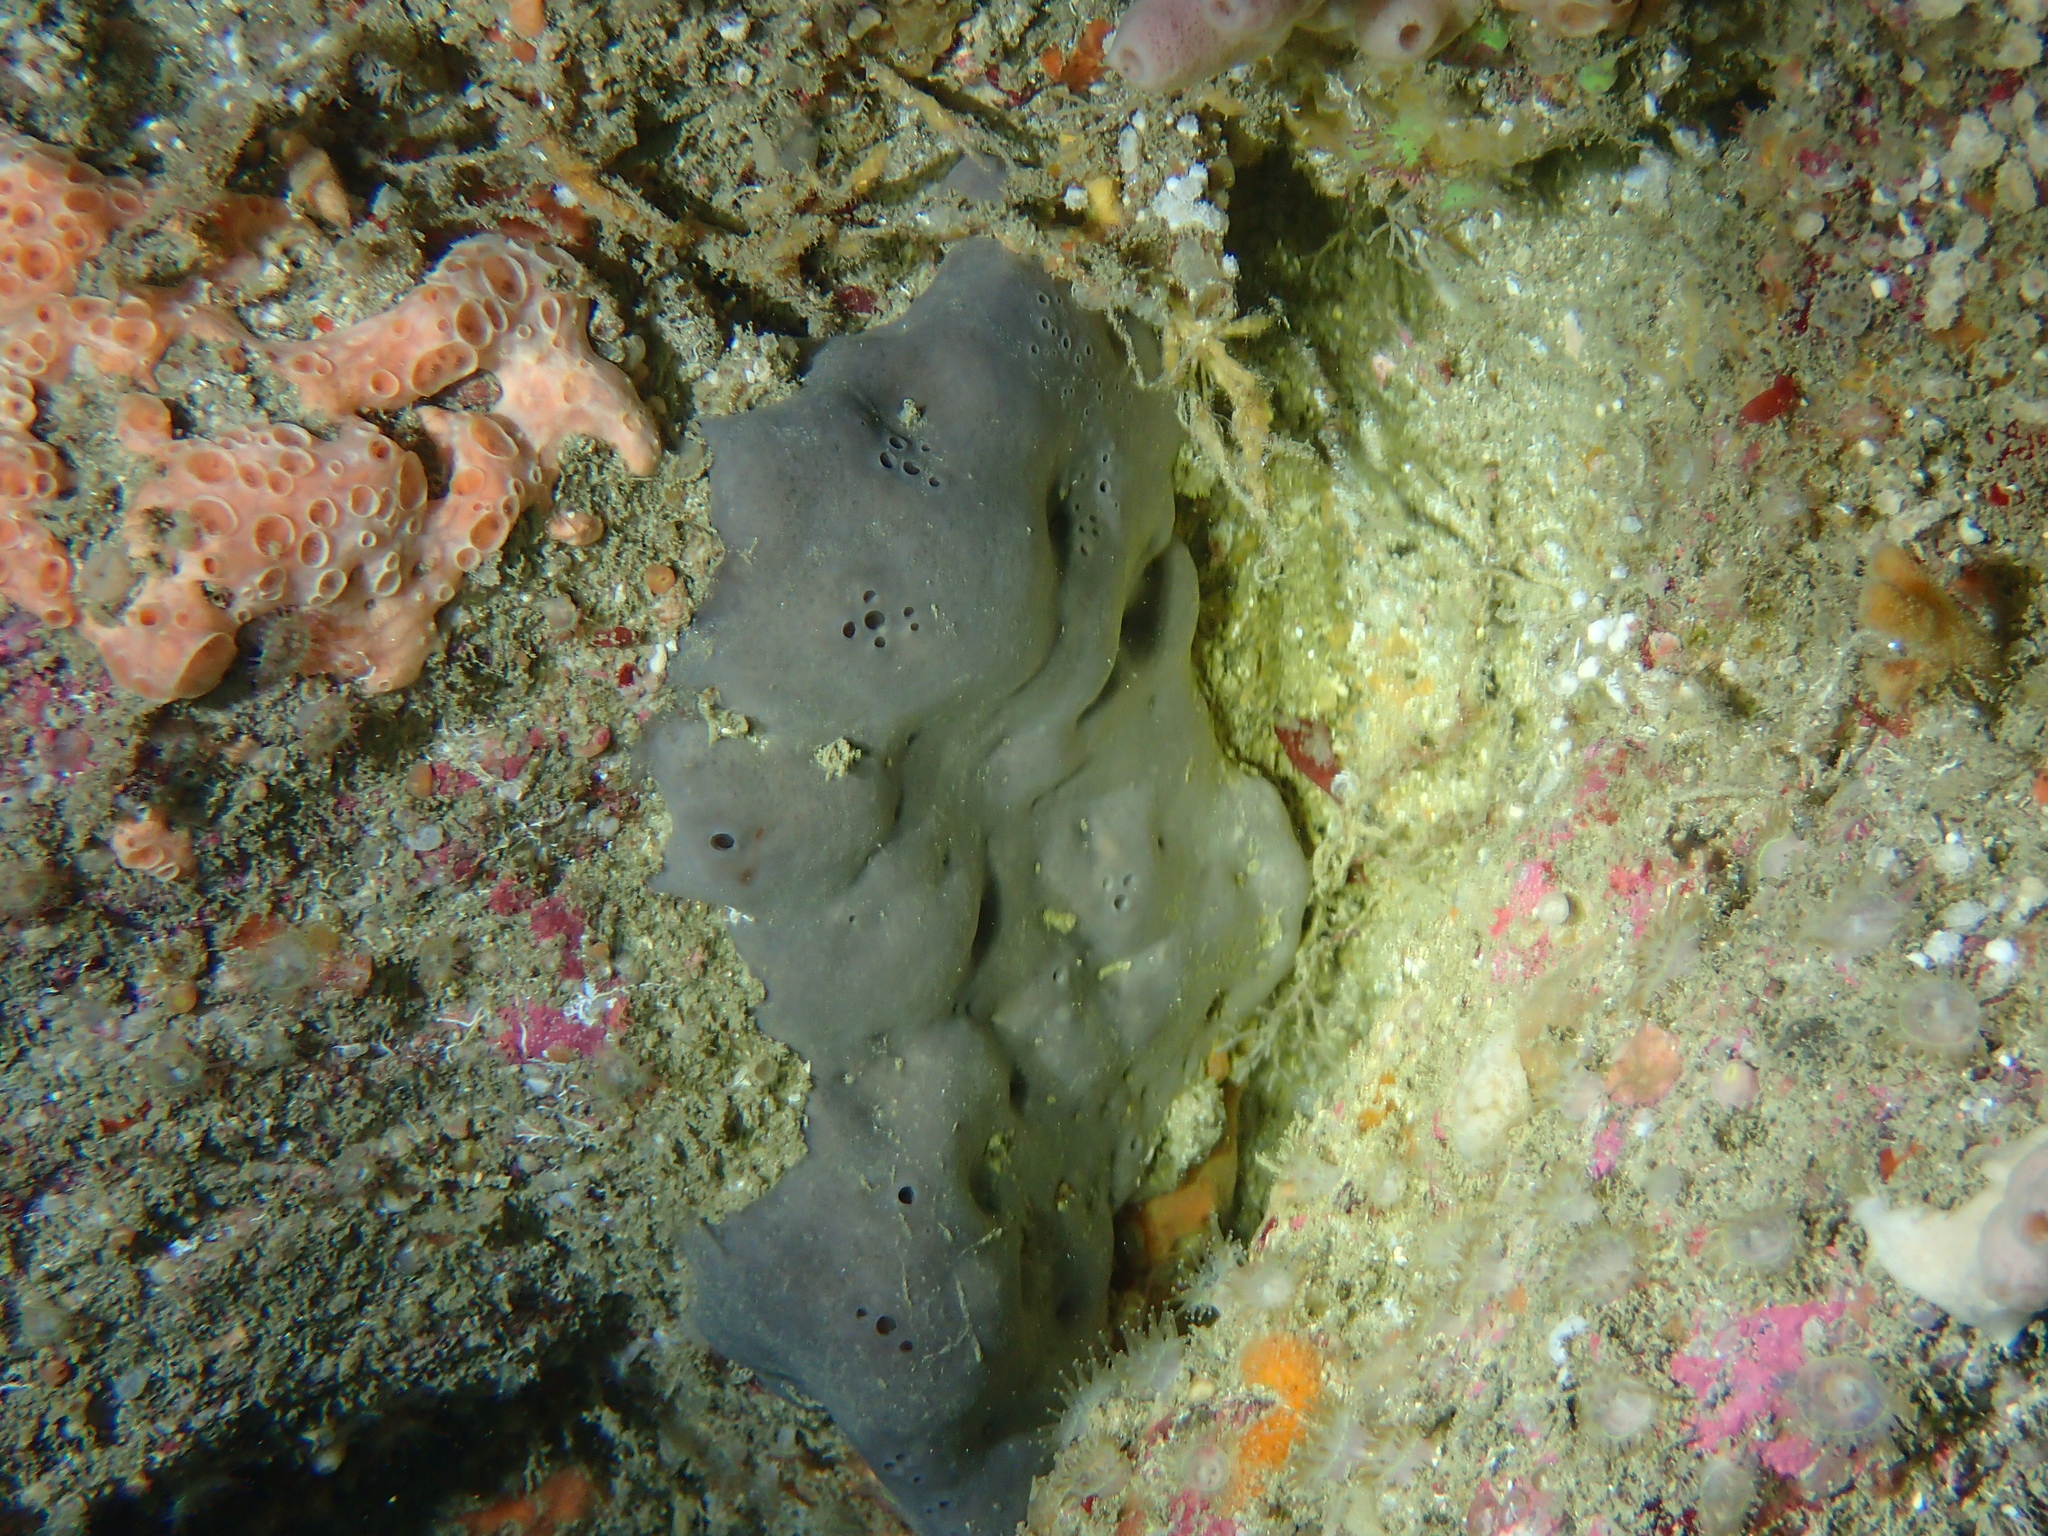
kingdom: Animalia
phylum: Porifera
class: Demospongiae
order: Tetractinellida
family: Geodiidae
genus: Pachymatisma
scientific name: Pachymatisma johnstonia
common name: Elephant ear sponge
